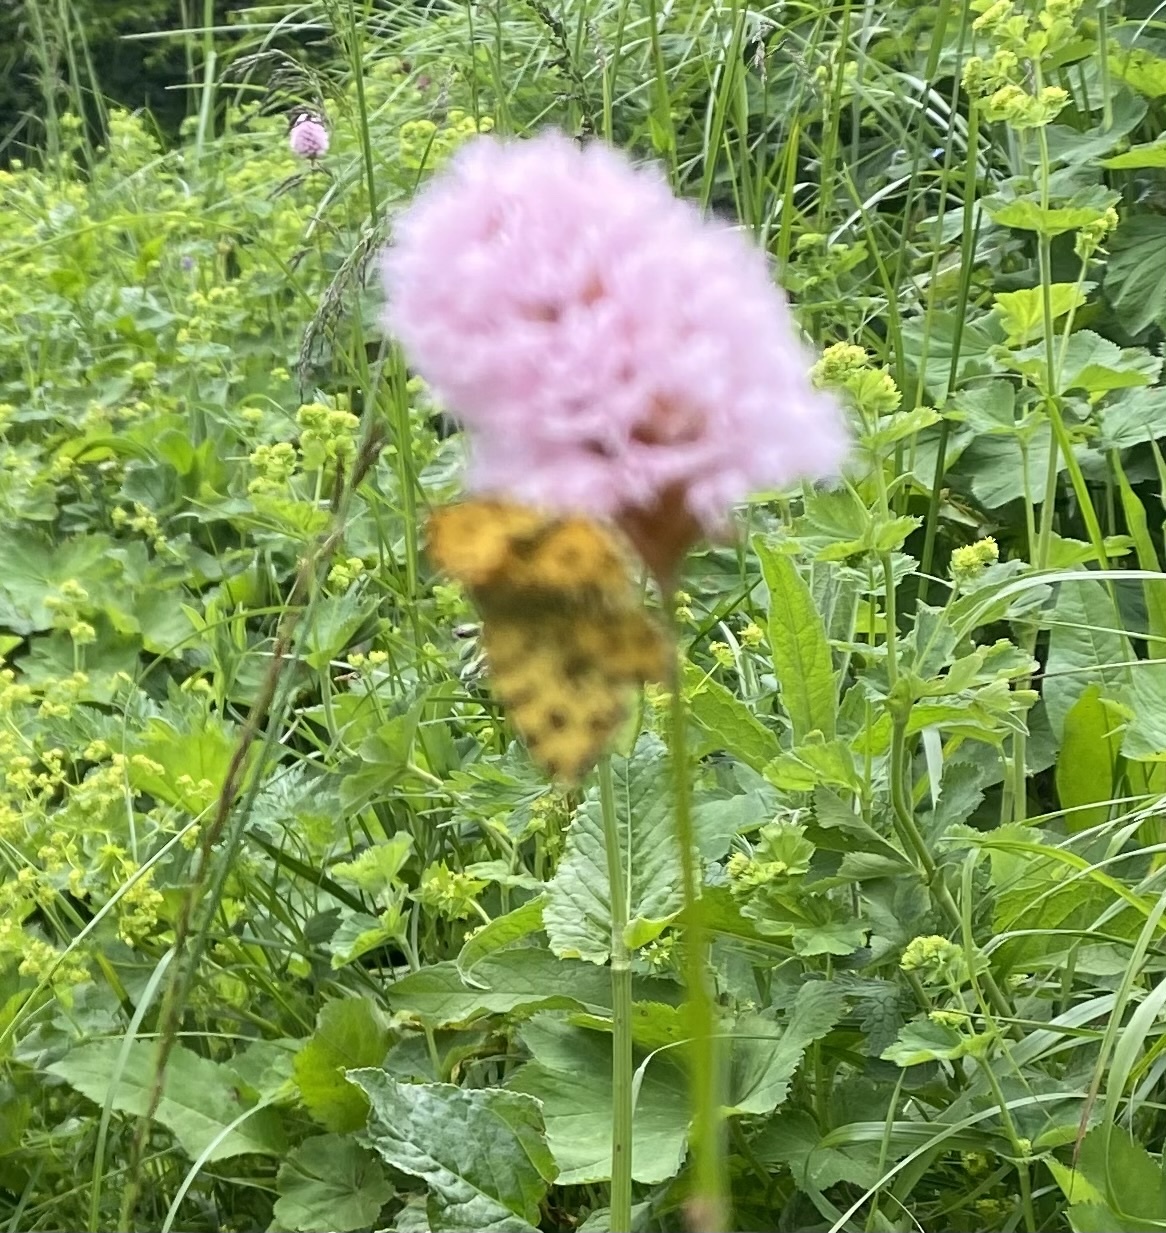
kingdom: Animalia
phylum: Arthropoda
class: Insecta
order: Lepidoptera
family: Geometridae
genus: Pseudopanthera
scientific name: Pseudopanthera macularia
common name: Speckled yellow
